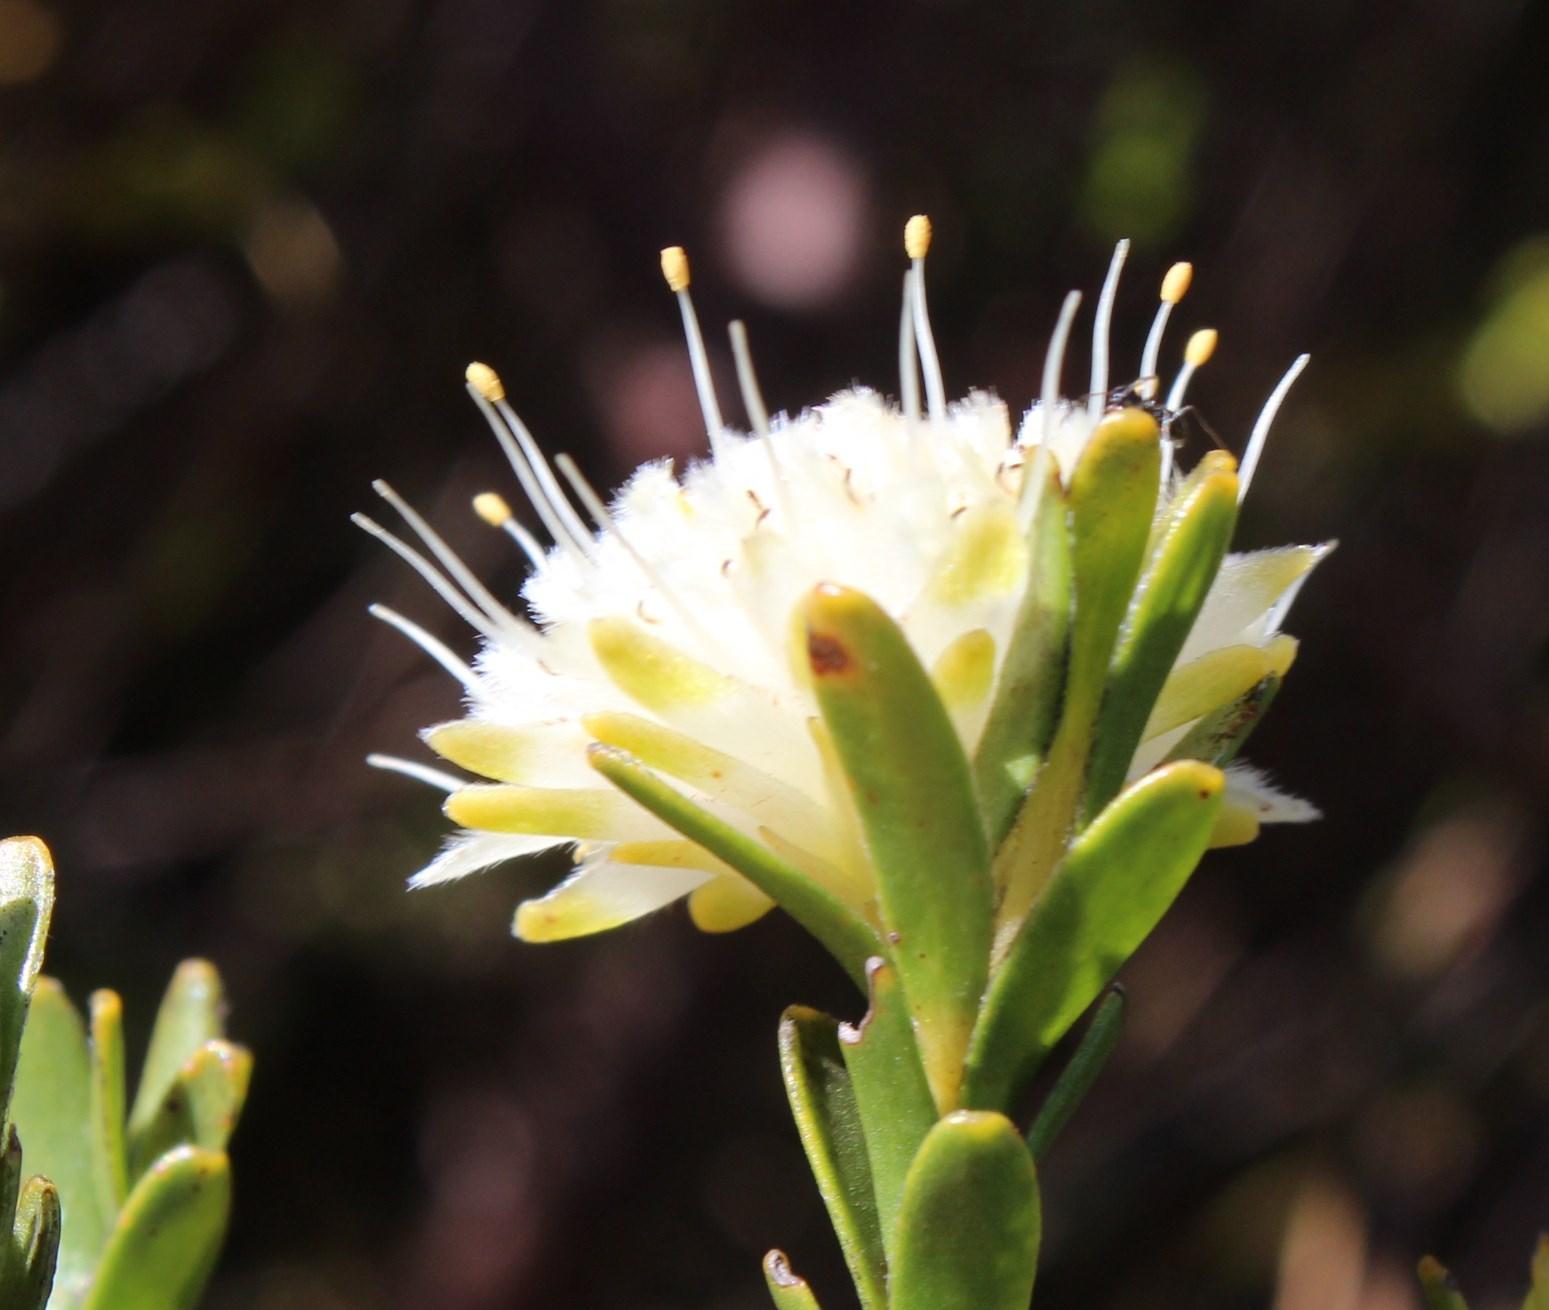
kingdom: Plantae
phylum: Tracheophyta
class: Magnoliopsida
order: Proteales
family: Proteaceae
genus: Diastella
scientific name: Diastella thymelaeoides
